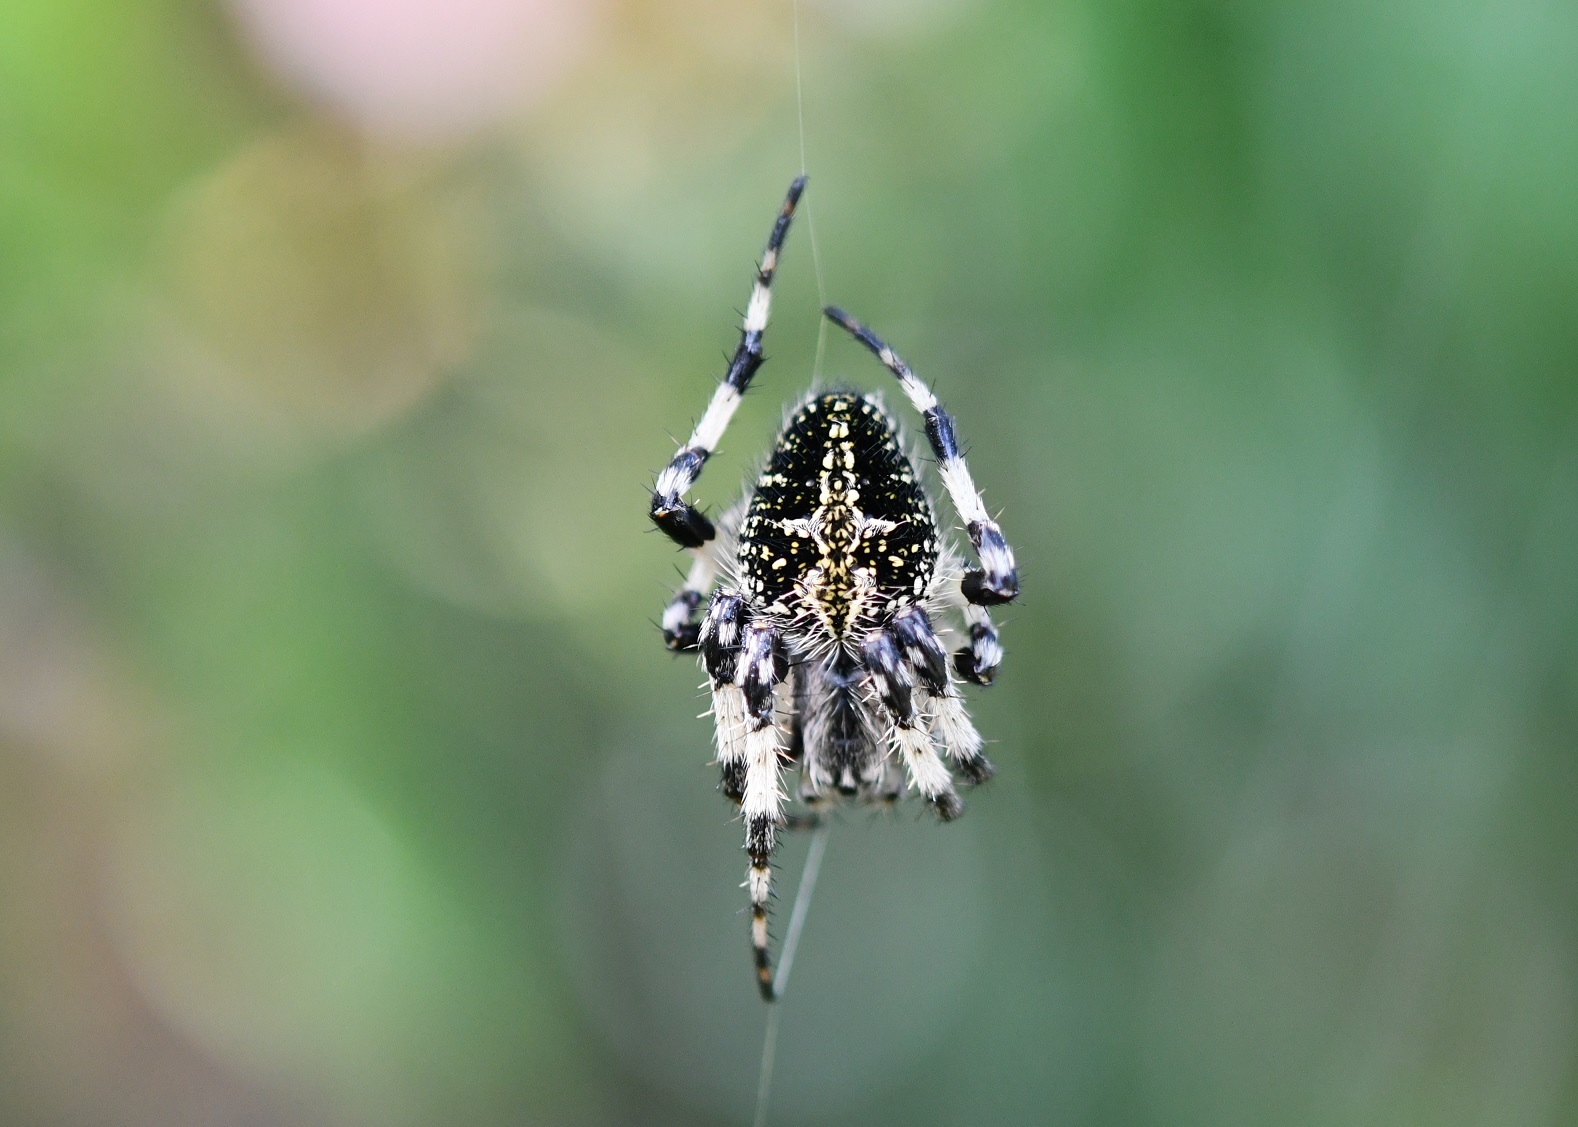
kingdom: Animalia
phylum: Arthropoda
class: Arachnida
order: Araneae
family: Araneidae
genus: Neoscona
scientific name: Neoscona orizabensis
